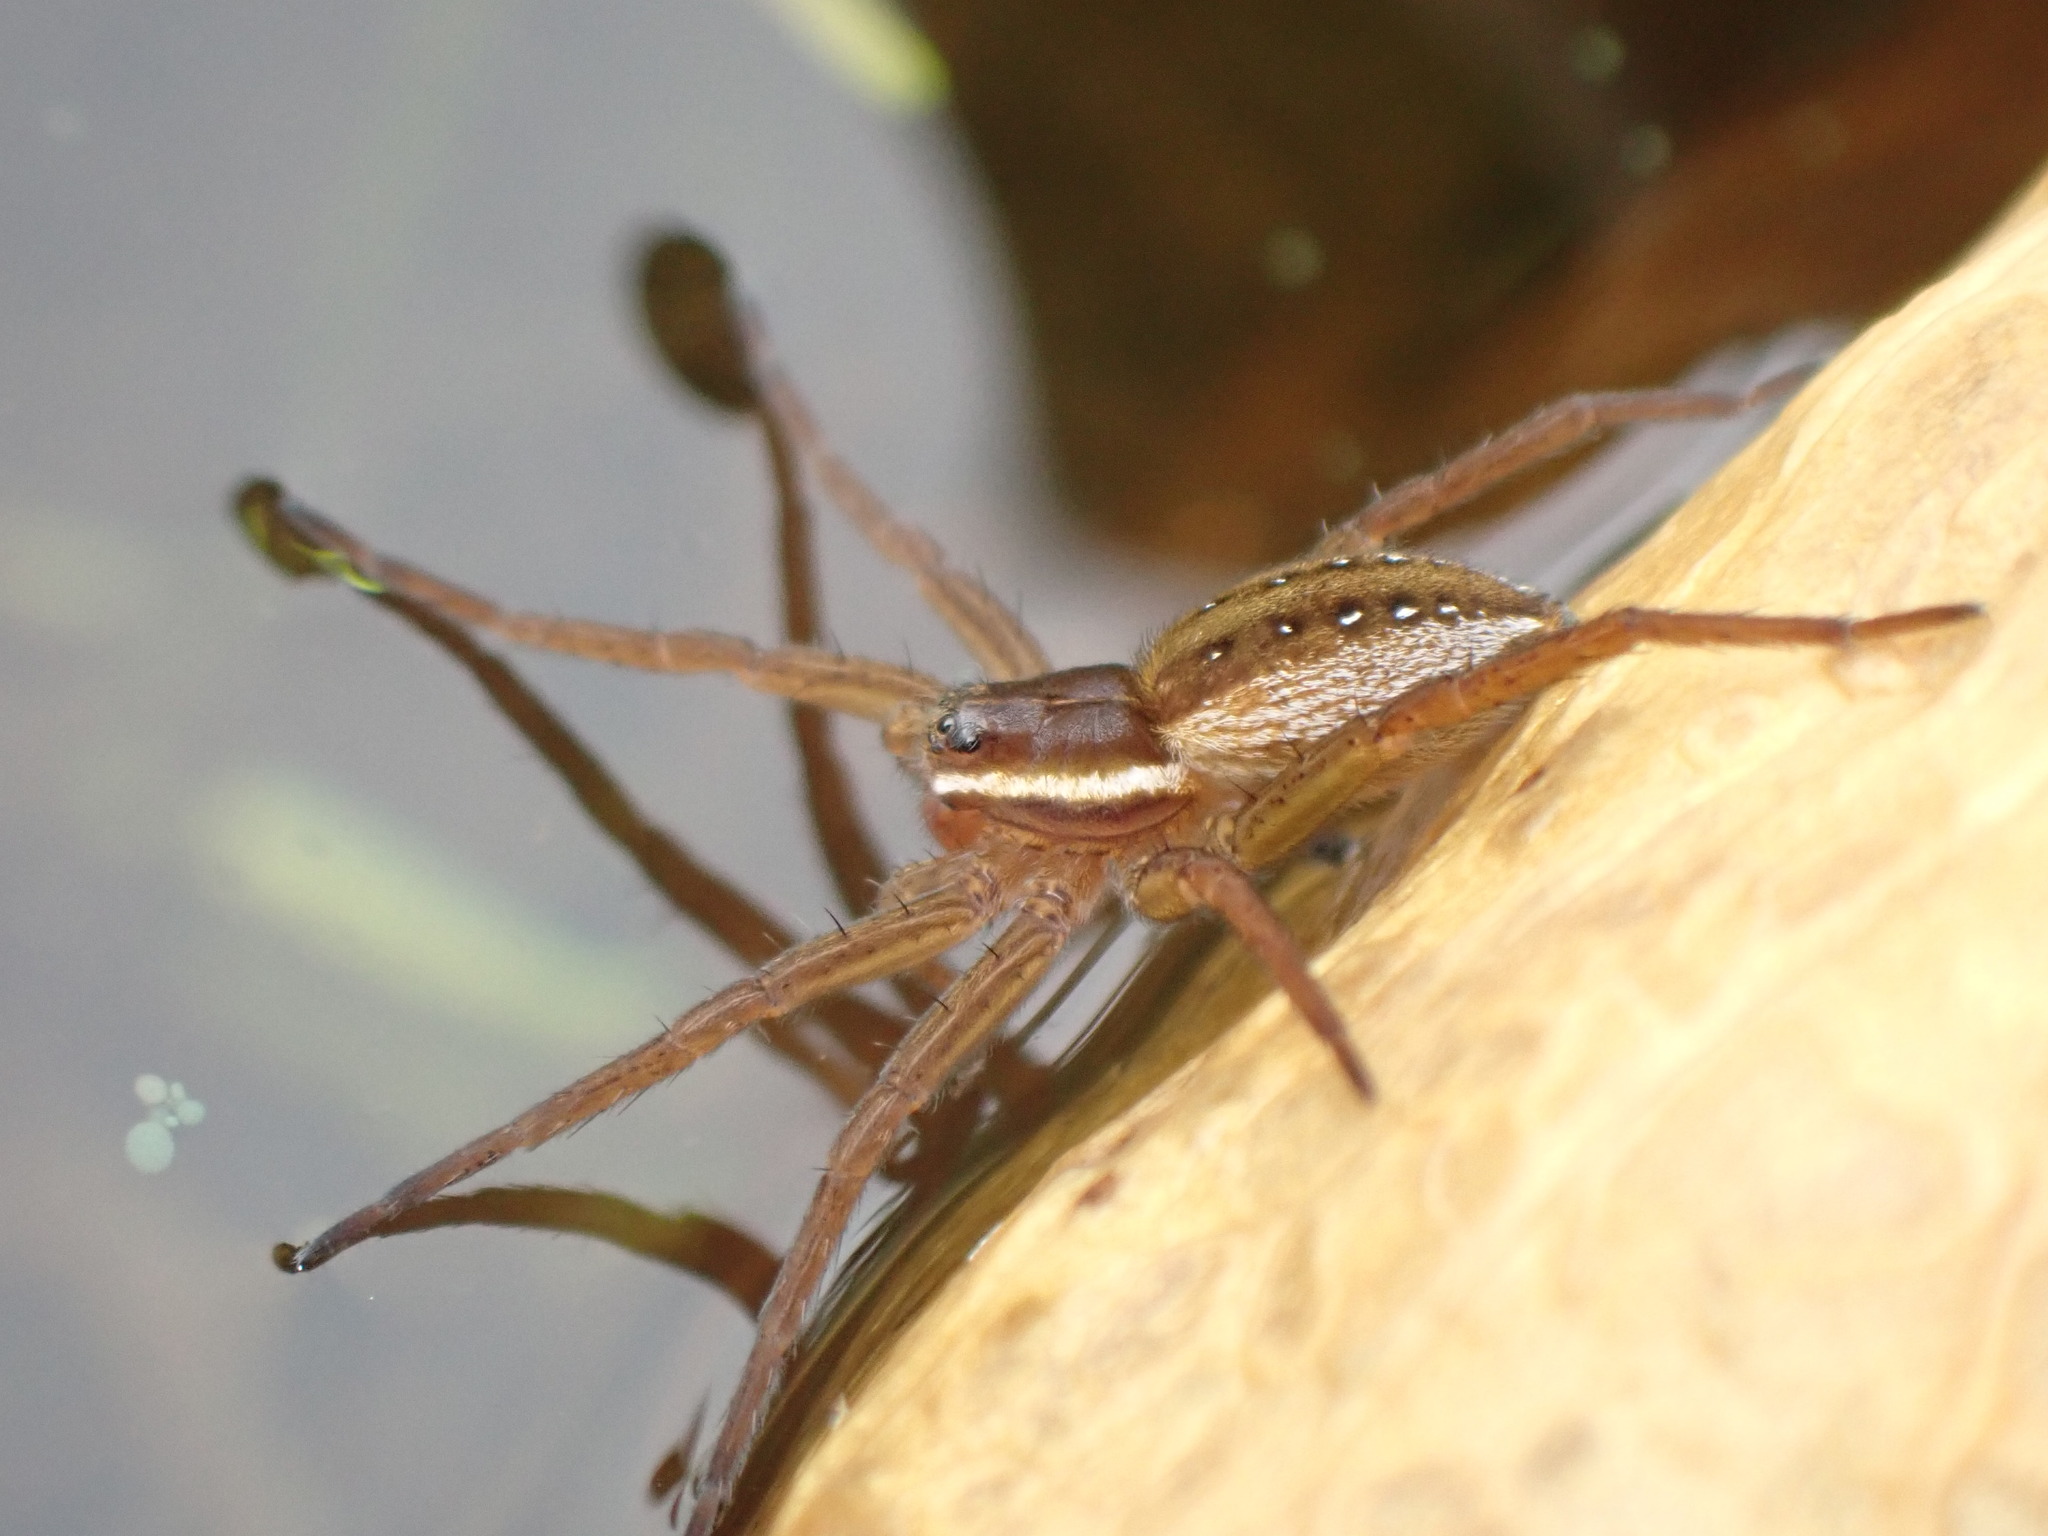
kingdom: Animalia
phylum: Arthropoda
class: Arachnida
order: Araneae
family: Pisauridae
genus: Dolomedes
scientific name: Dolomedes triton
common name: Six-spotted fishing spider
